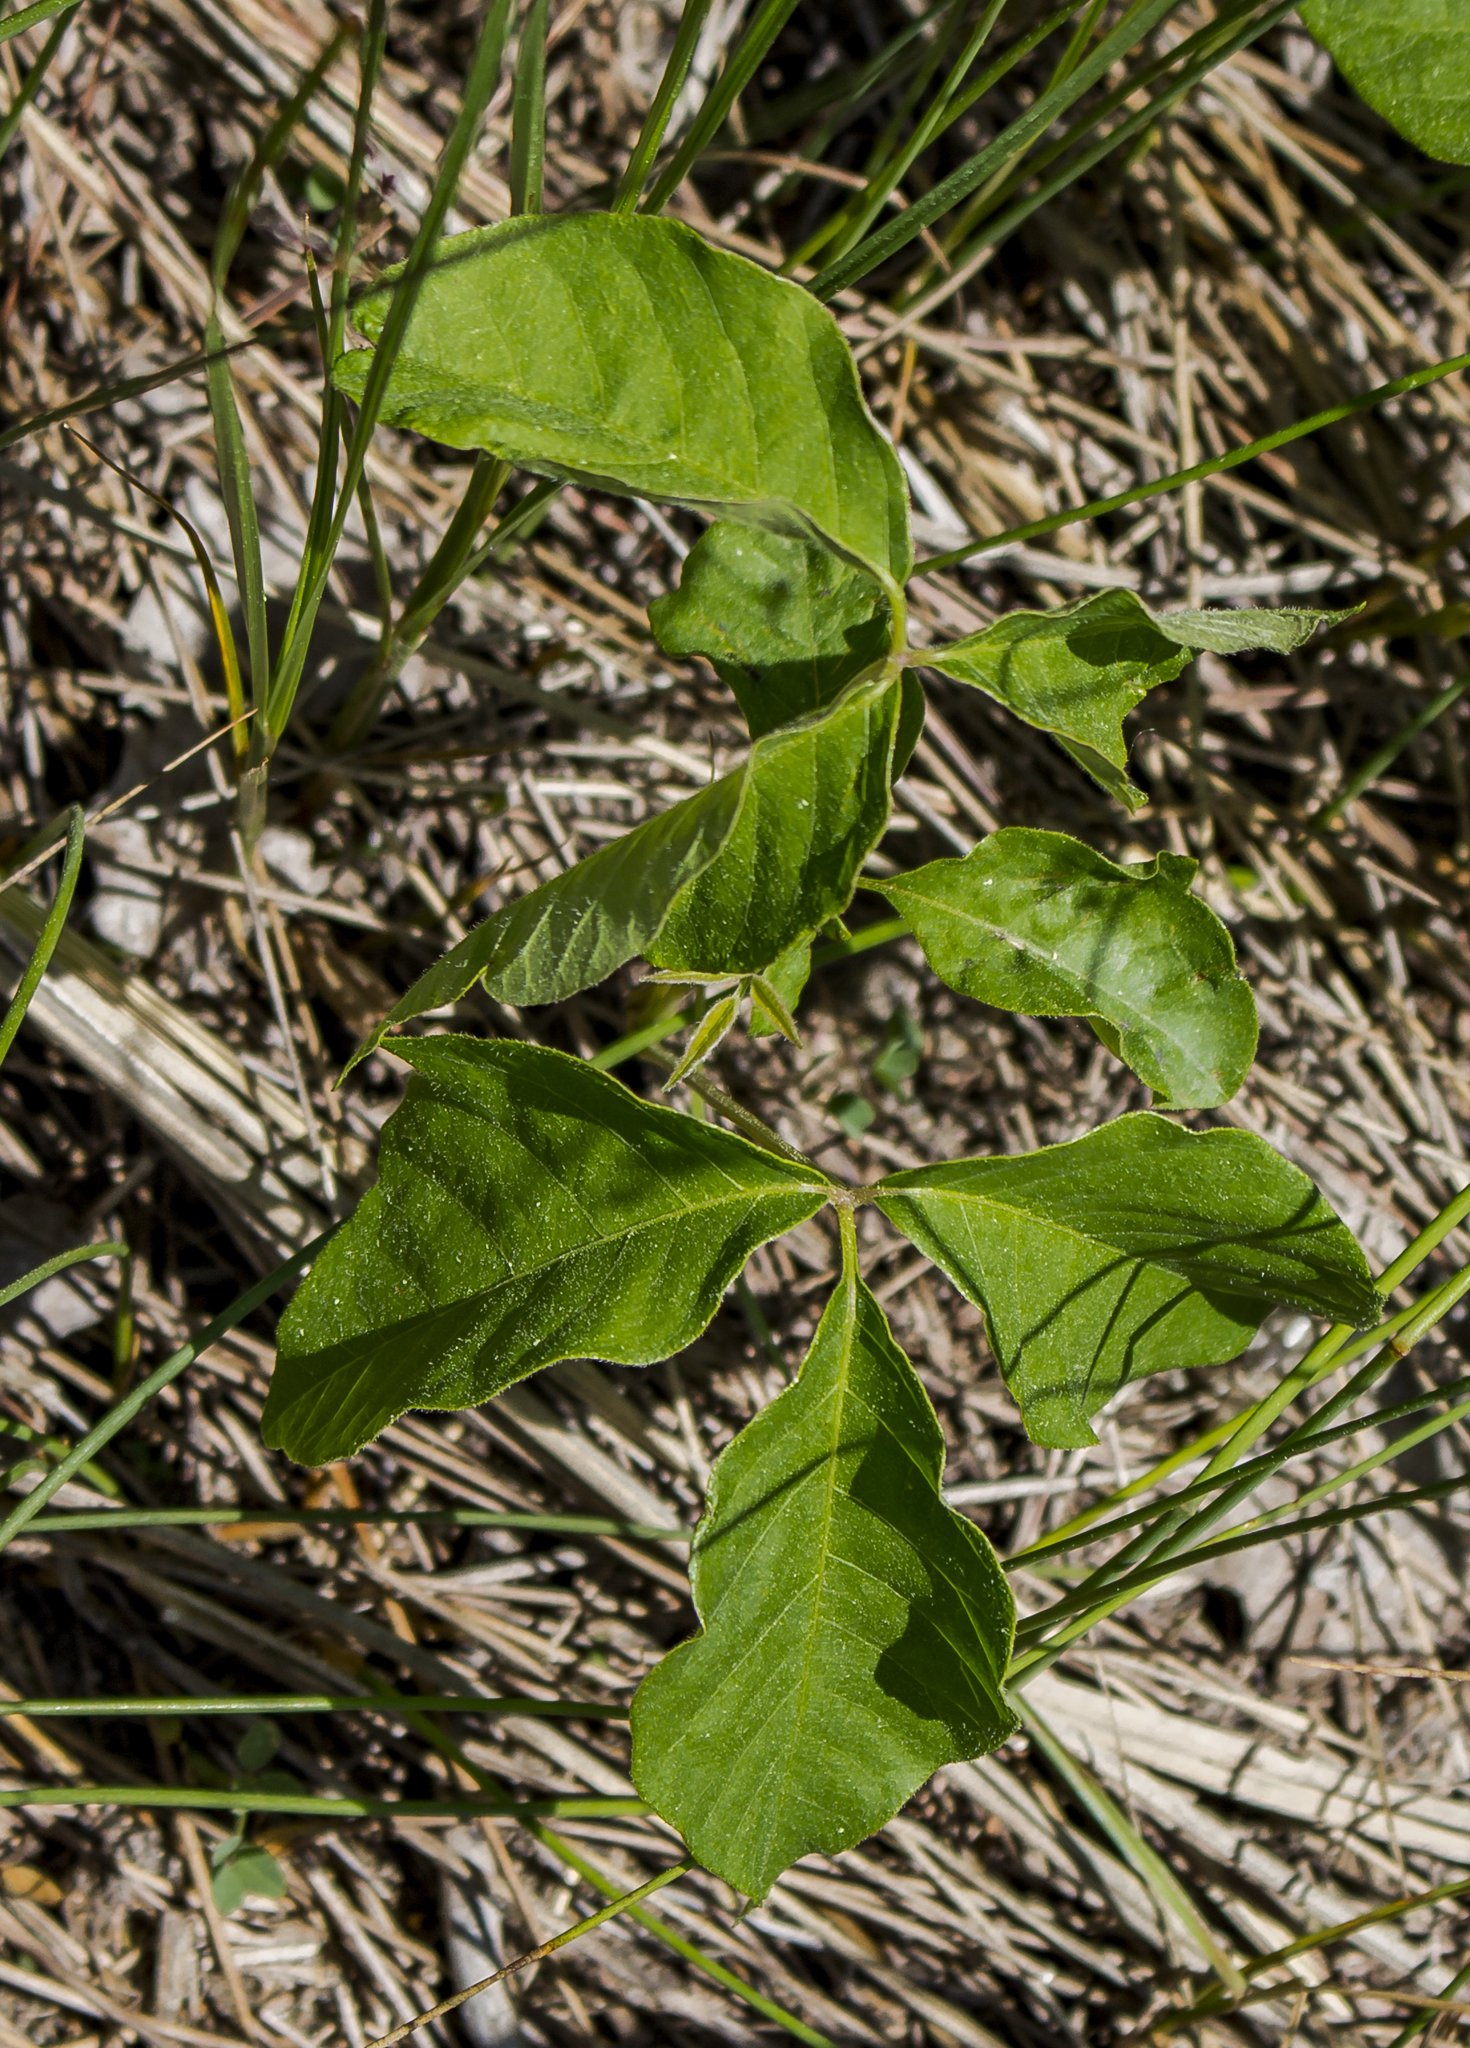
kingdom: Plantae
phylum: Tracheophyta
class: Magnoliopsida
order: Sapindales
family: Anacardiaceae
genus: Toxicodendron
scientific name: Toxicodendron rydbergii
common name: Rydberg's poison-ivy
